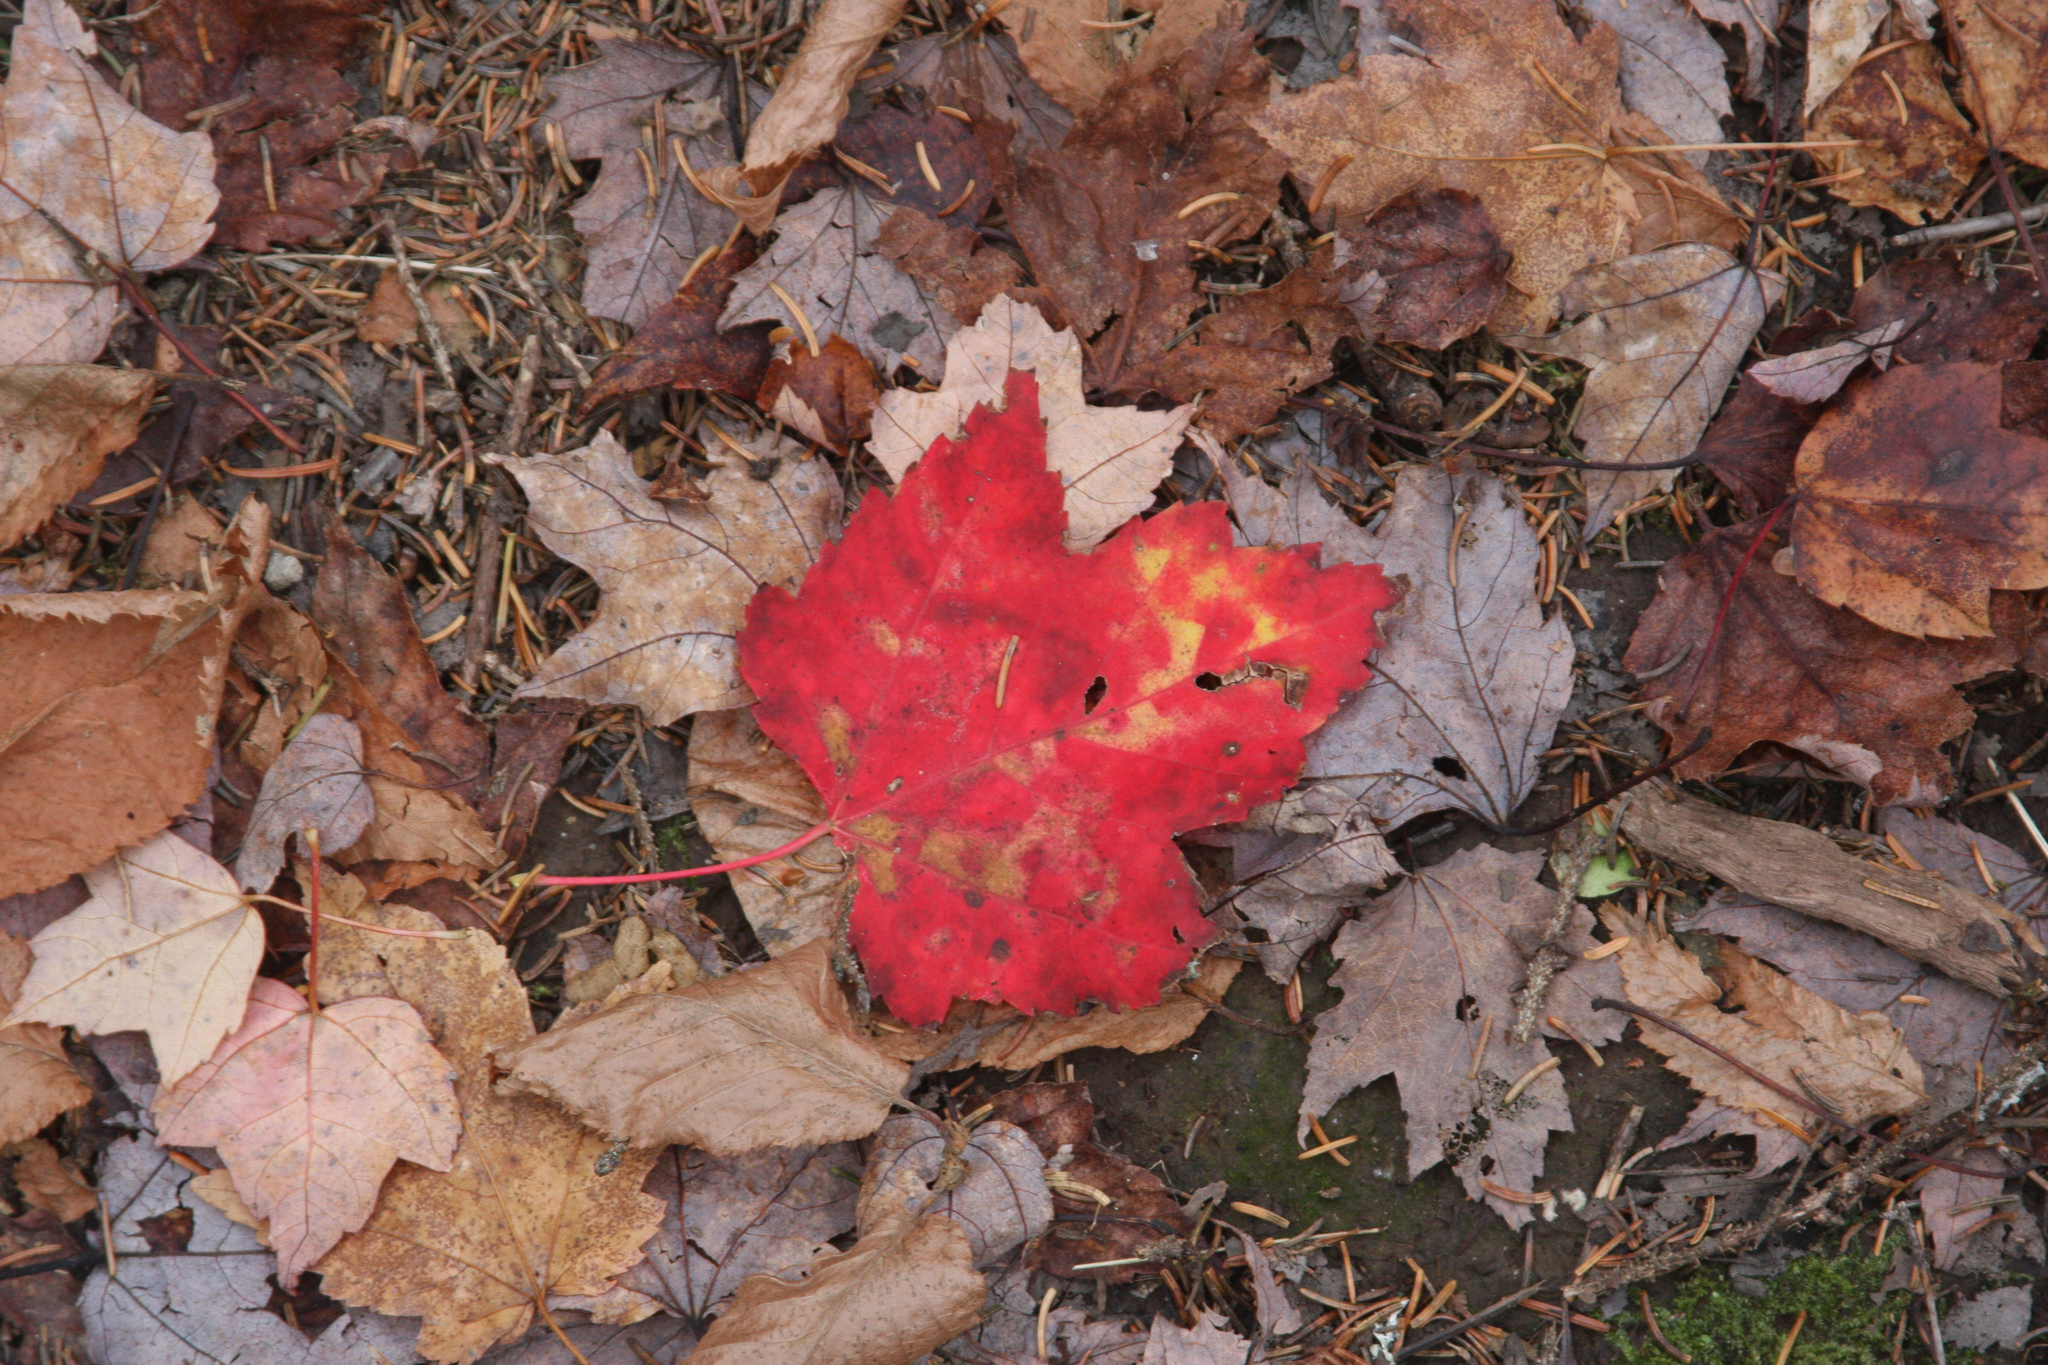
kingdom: Plantae
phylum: Tracheophyta
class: Magnoliopsida
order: Sapindales
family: Sapindaceae
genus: Acer
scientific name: Acer rubrum
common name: Red maple
